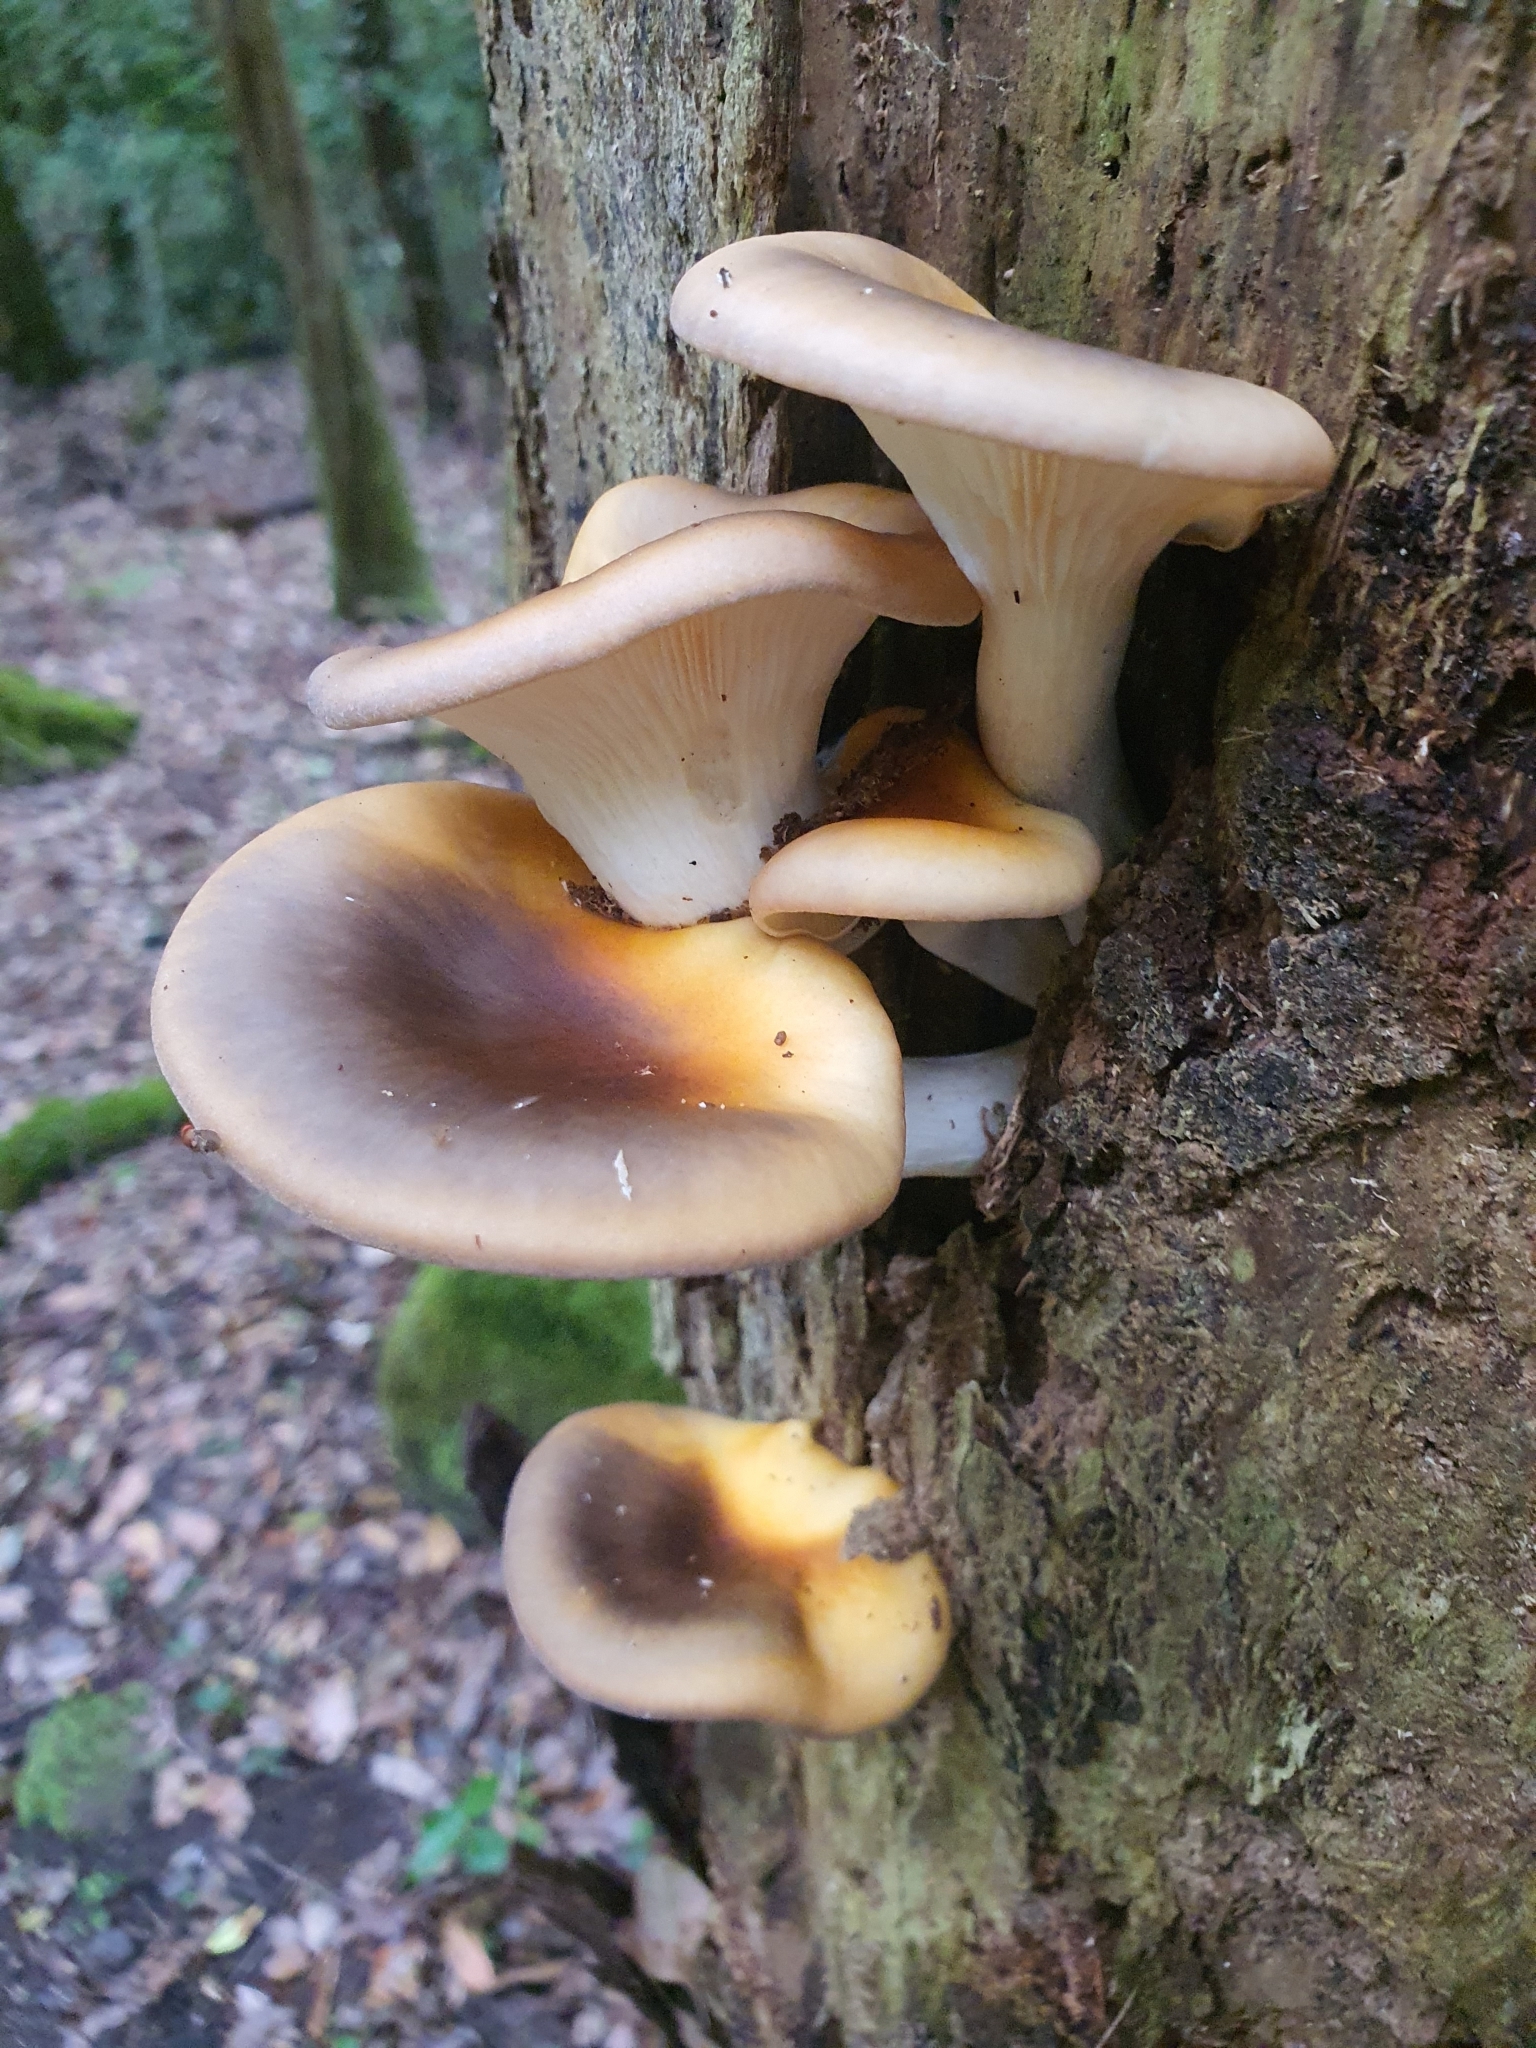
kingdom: Fungi
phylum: Basidiomycota
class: Agaricomycetes
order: Agaricales
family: Omphalotaceae
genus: Omphalotus
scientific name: Omphalotus nidiformis
